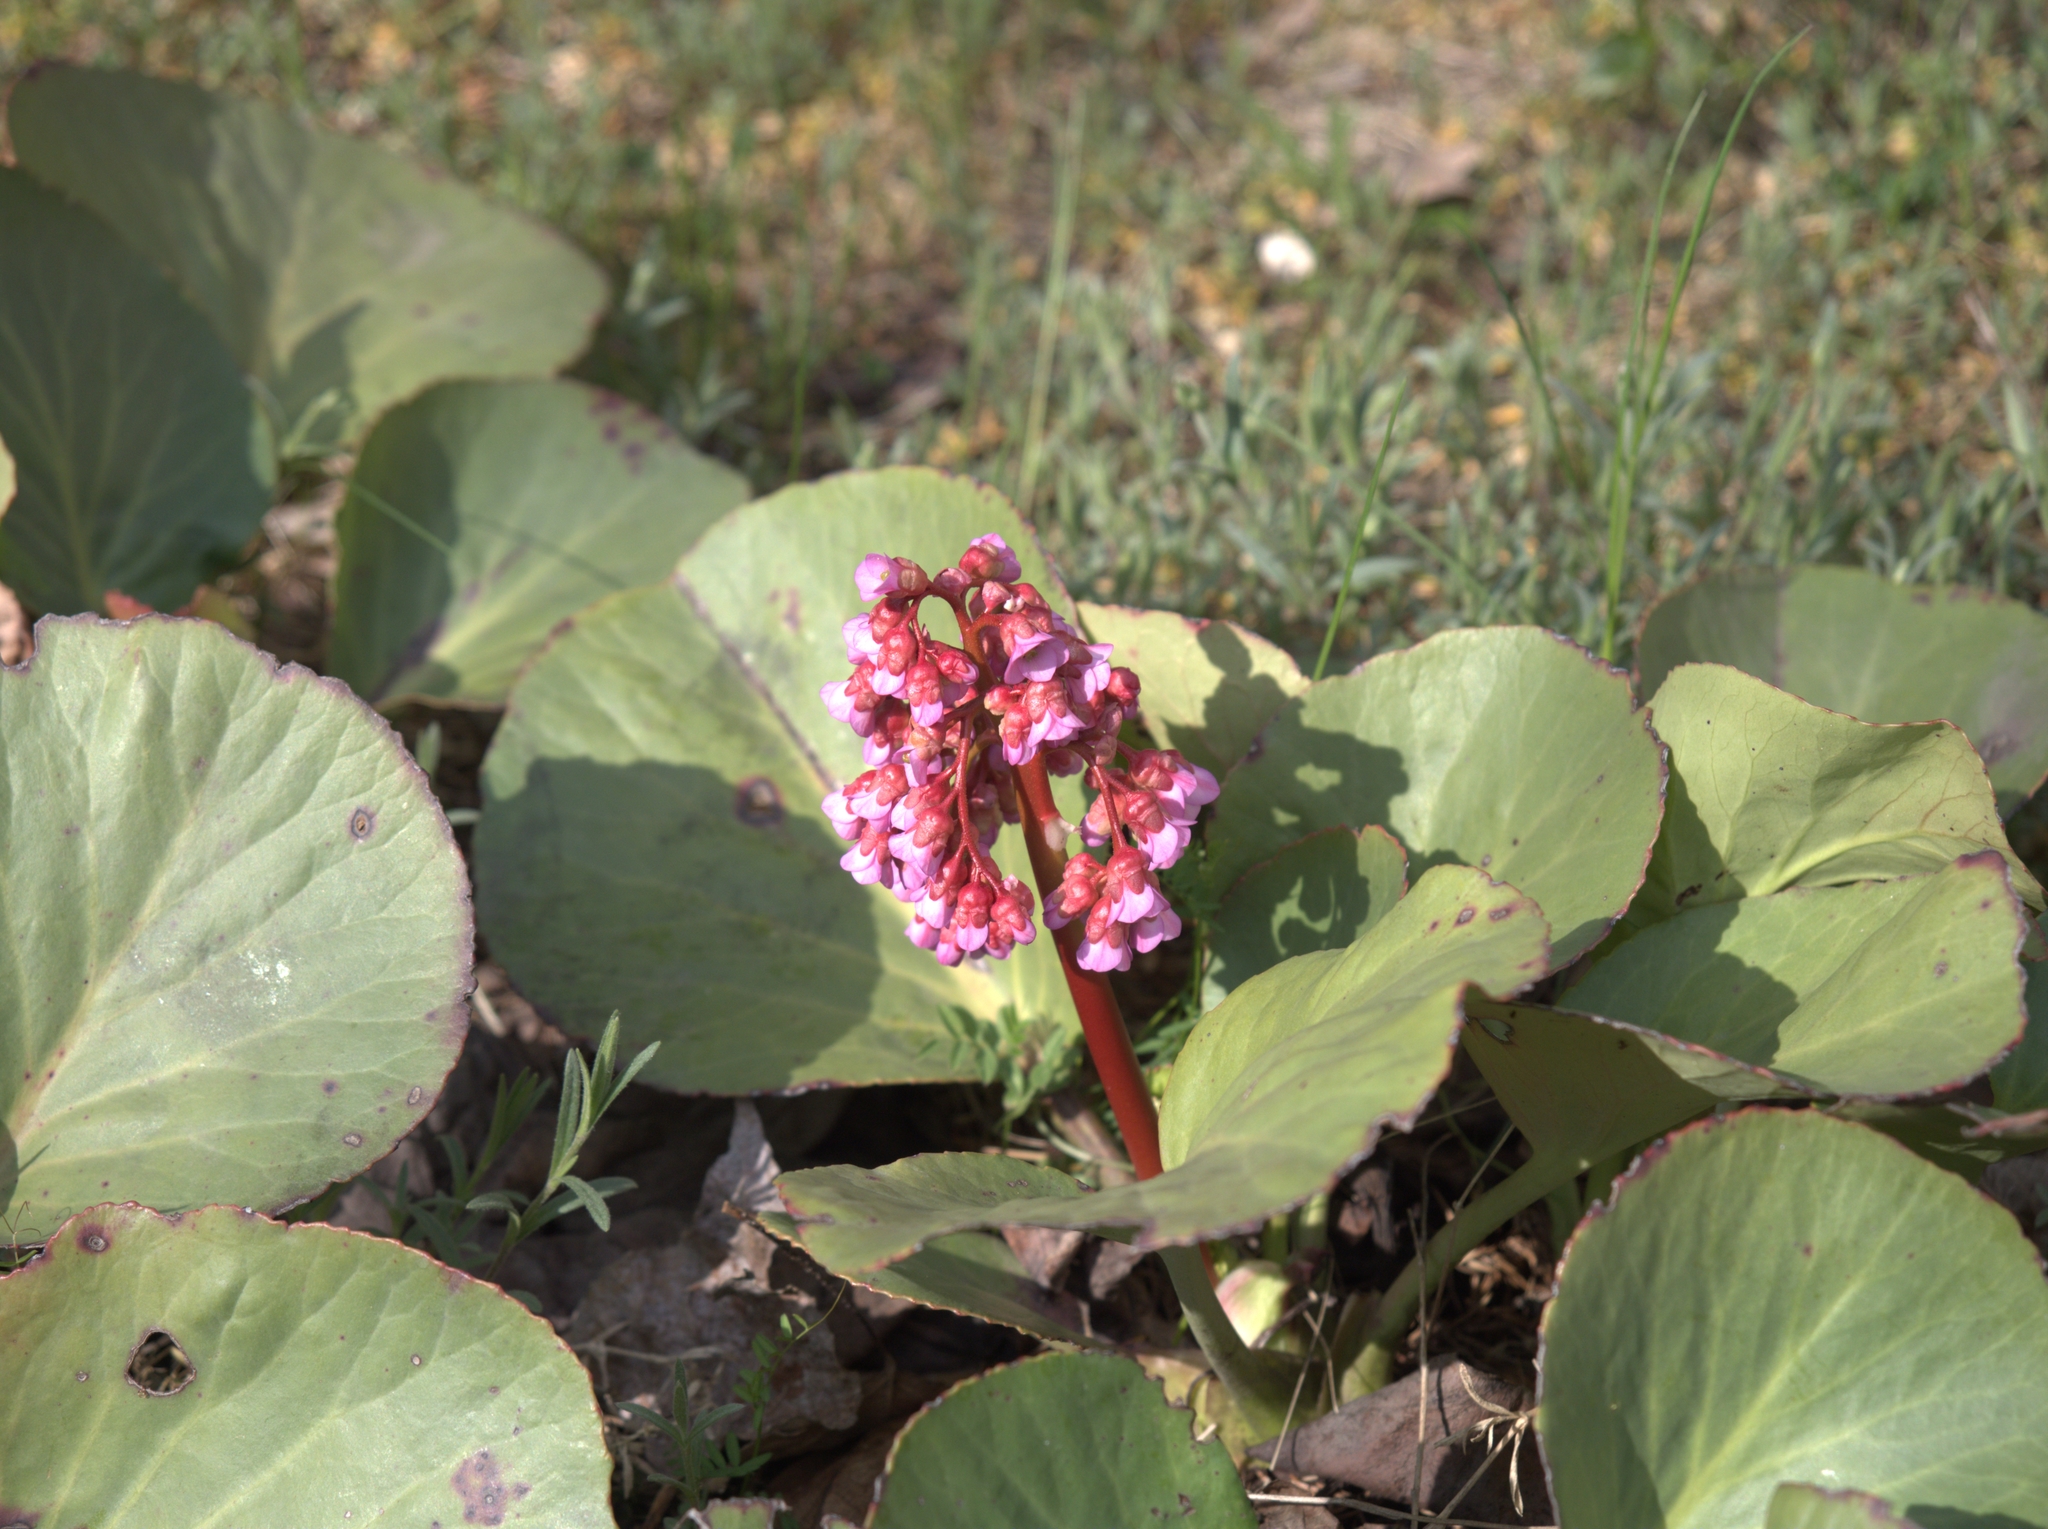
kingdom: Plantae
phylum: Tracheophyta
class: Magnoliopsida
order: Saxifragales
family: Saxifragaceae
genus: Bergenia
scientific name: Bergenia crassifolia
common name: Elephant-ears
